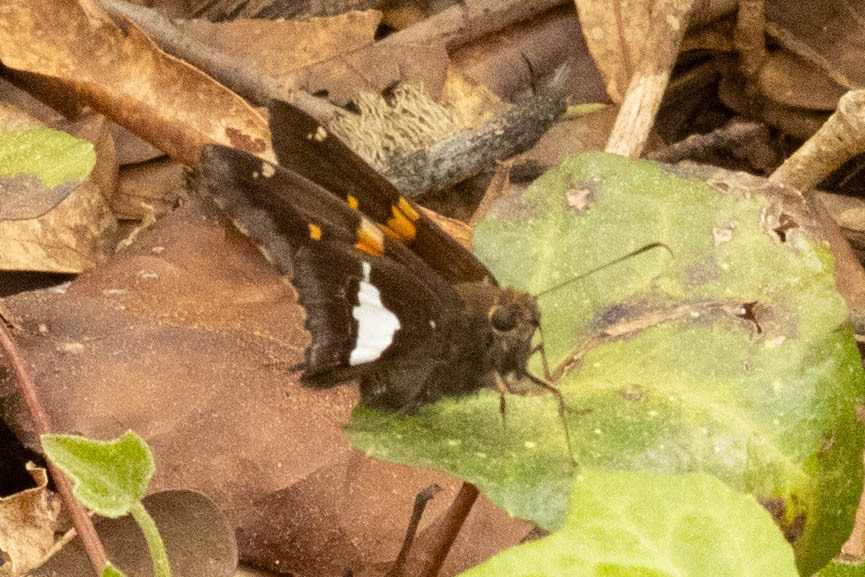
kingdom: Animalia
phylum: Arthropoda
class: Insecta
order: Lepidoptera
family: Hesperiidae
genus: Epargyreus
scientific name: Epargyreus clarus
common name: Silver-spotted skipper
